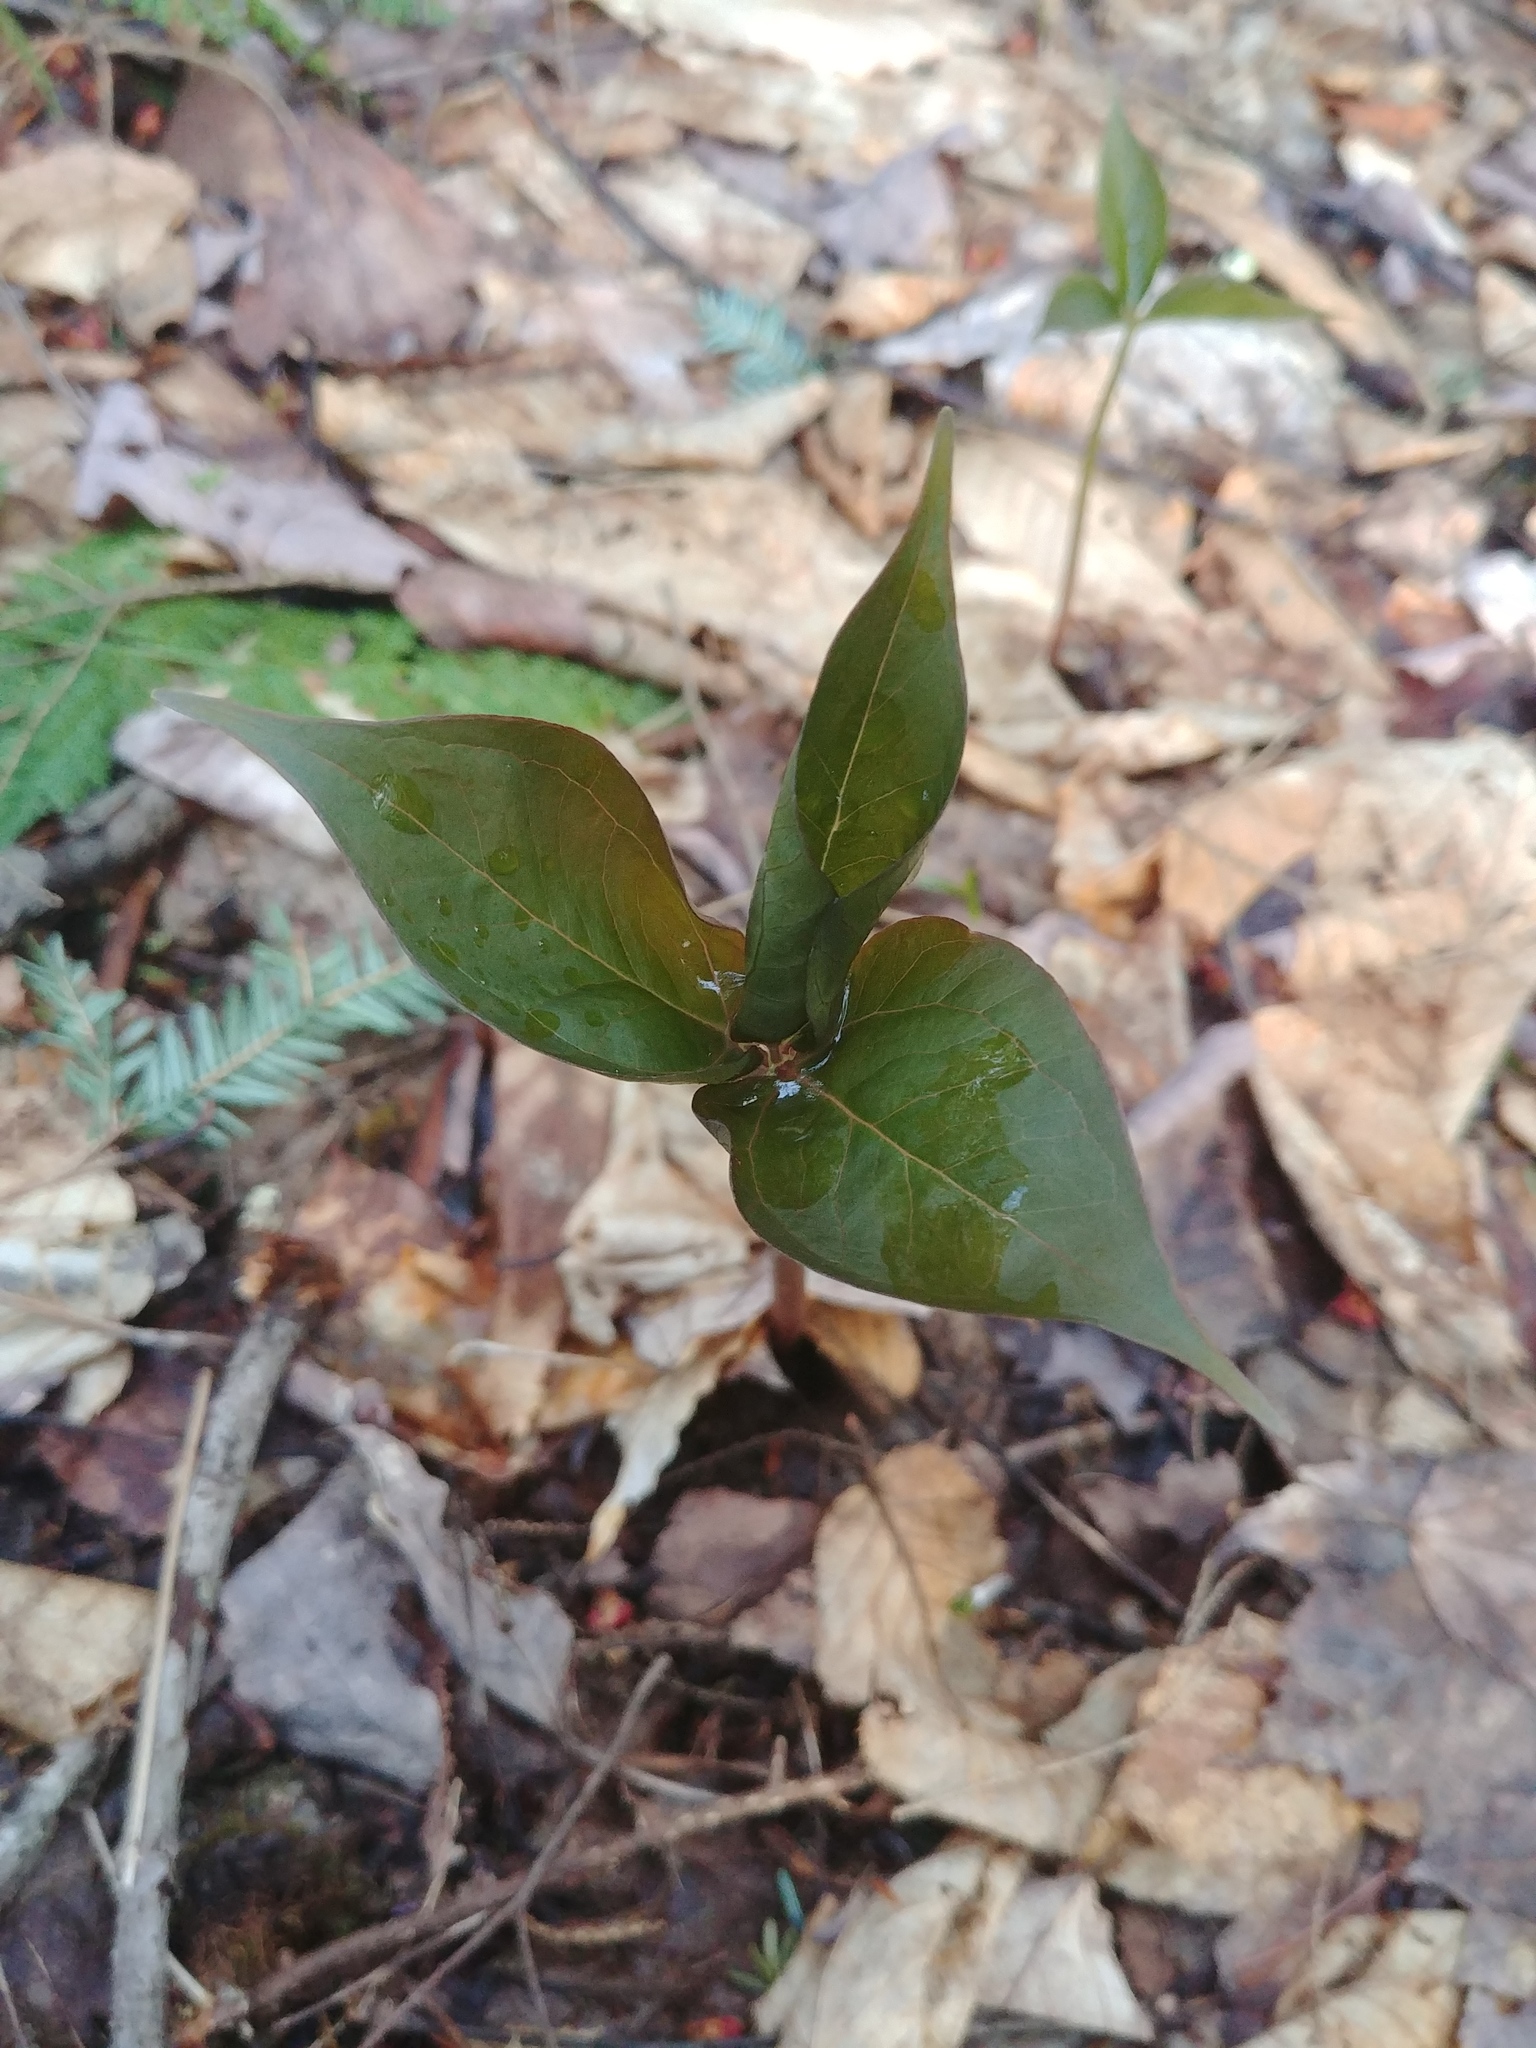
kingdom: Plantae
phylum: Tracheophyta
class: Liliopsida
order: Liliales
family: Melanthiaceae
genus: Trillium
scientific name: Trillium undulatum
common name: Paint trillium
